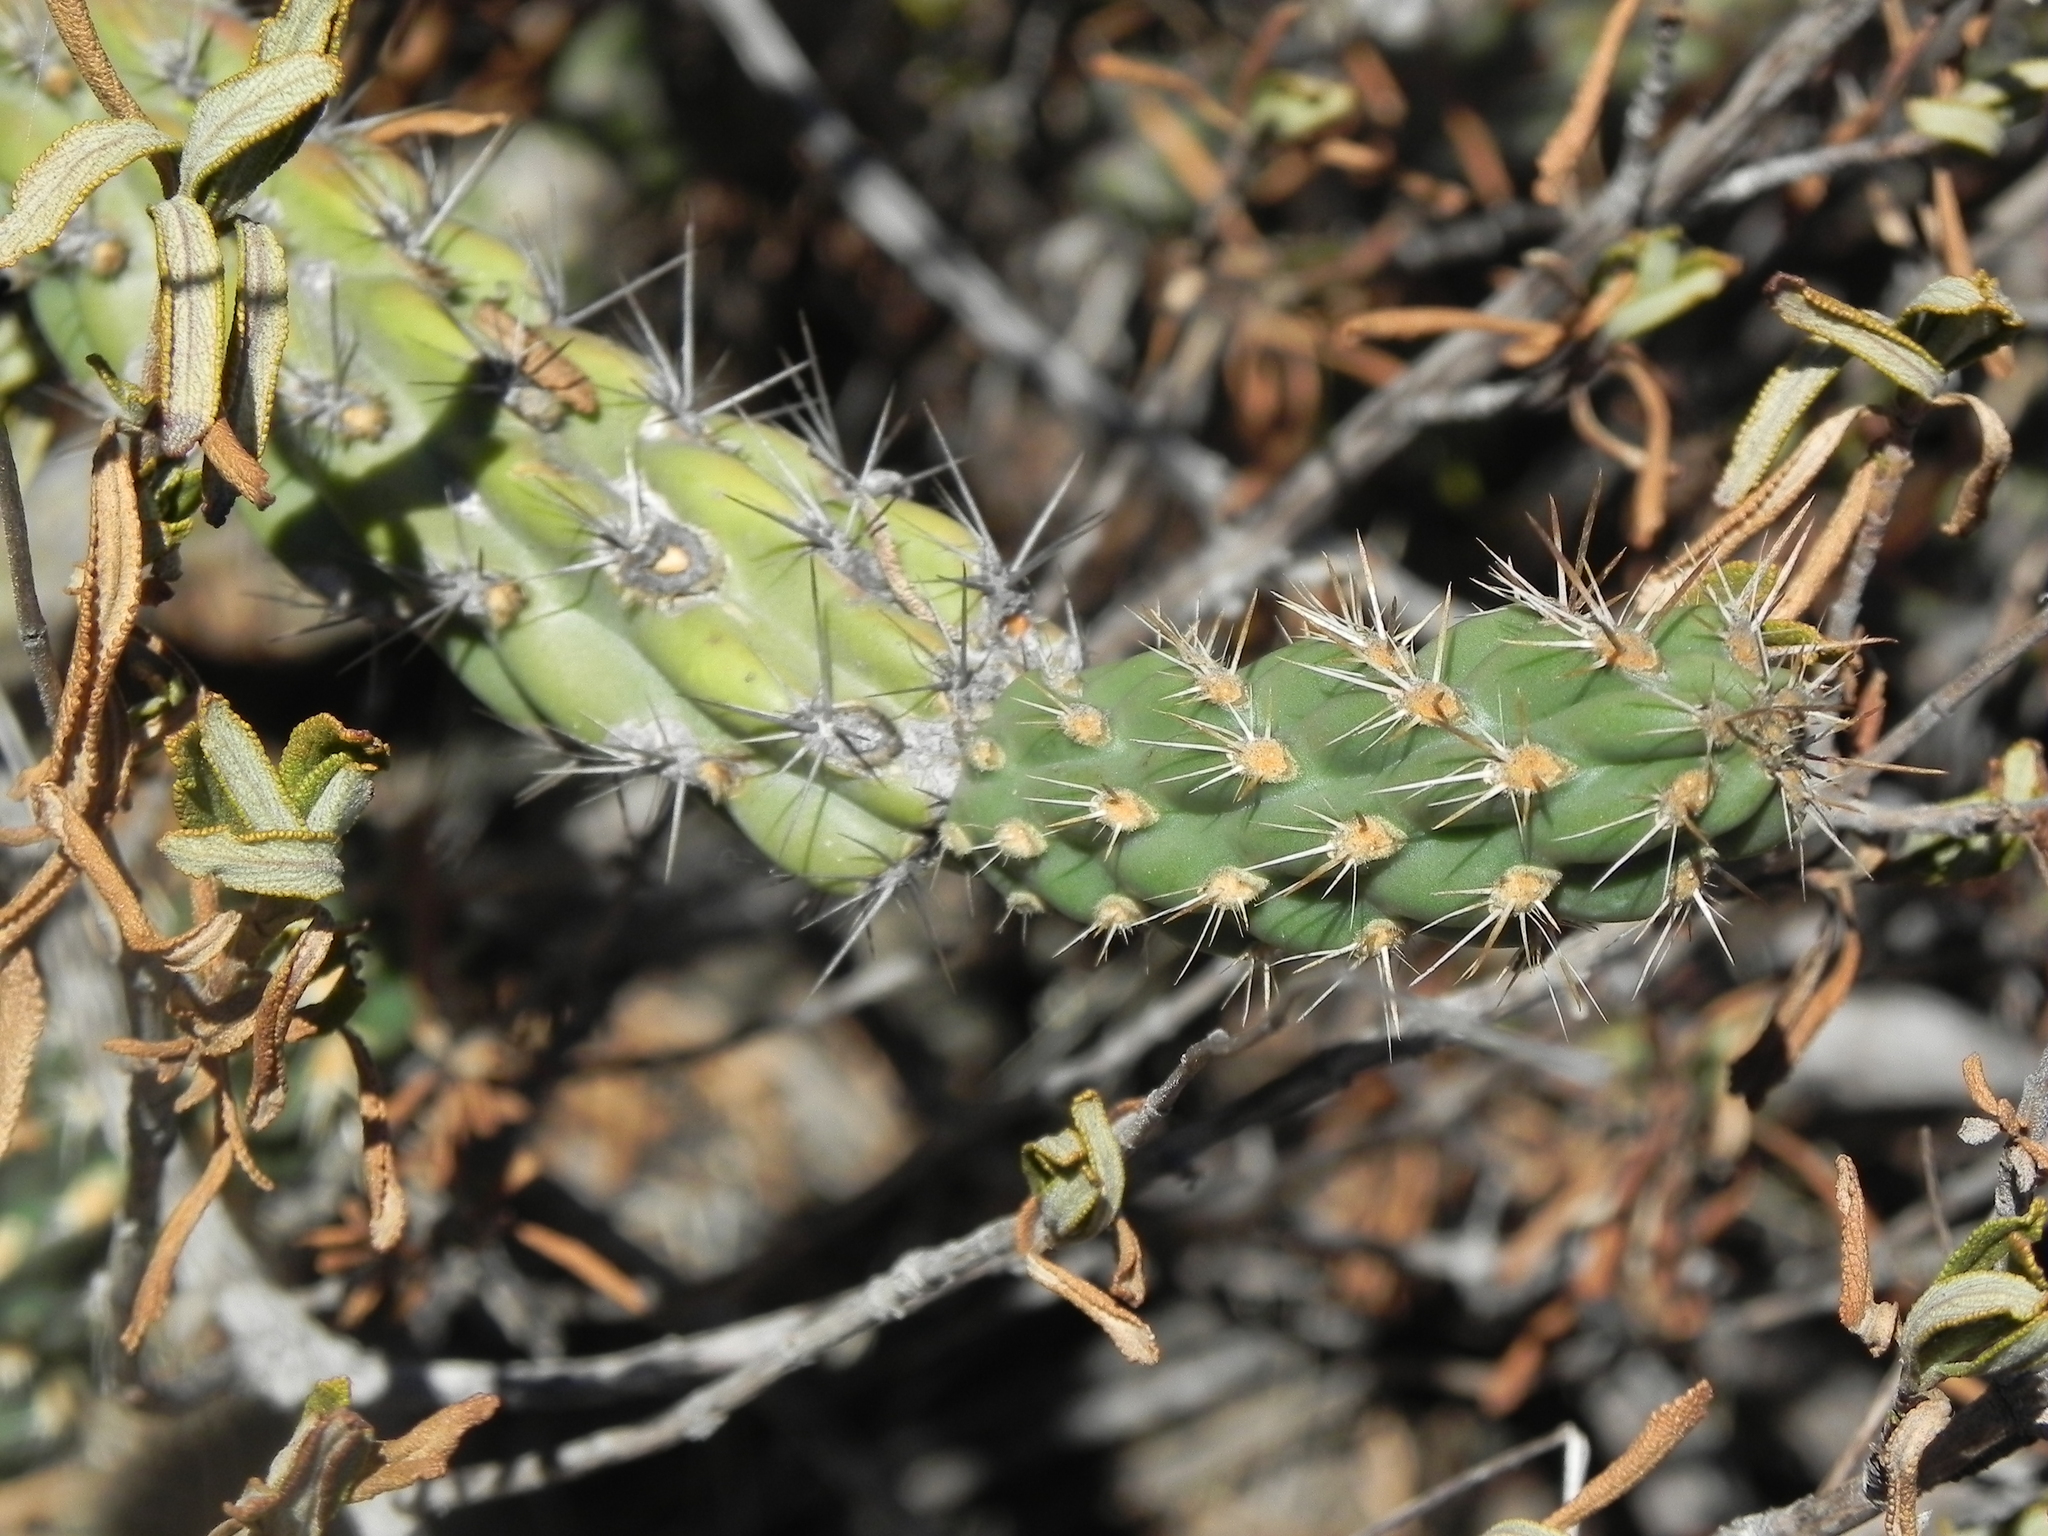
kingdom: Plantae
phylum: Tracheophyta
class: Magnoliopsida
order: Caryophyllales
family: Cactaceae
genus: Cylindropuntia
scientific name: Cylindropuntia californica
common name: Snake cholla
